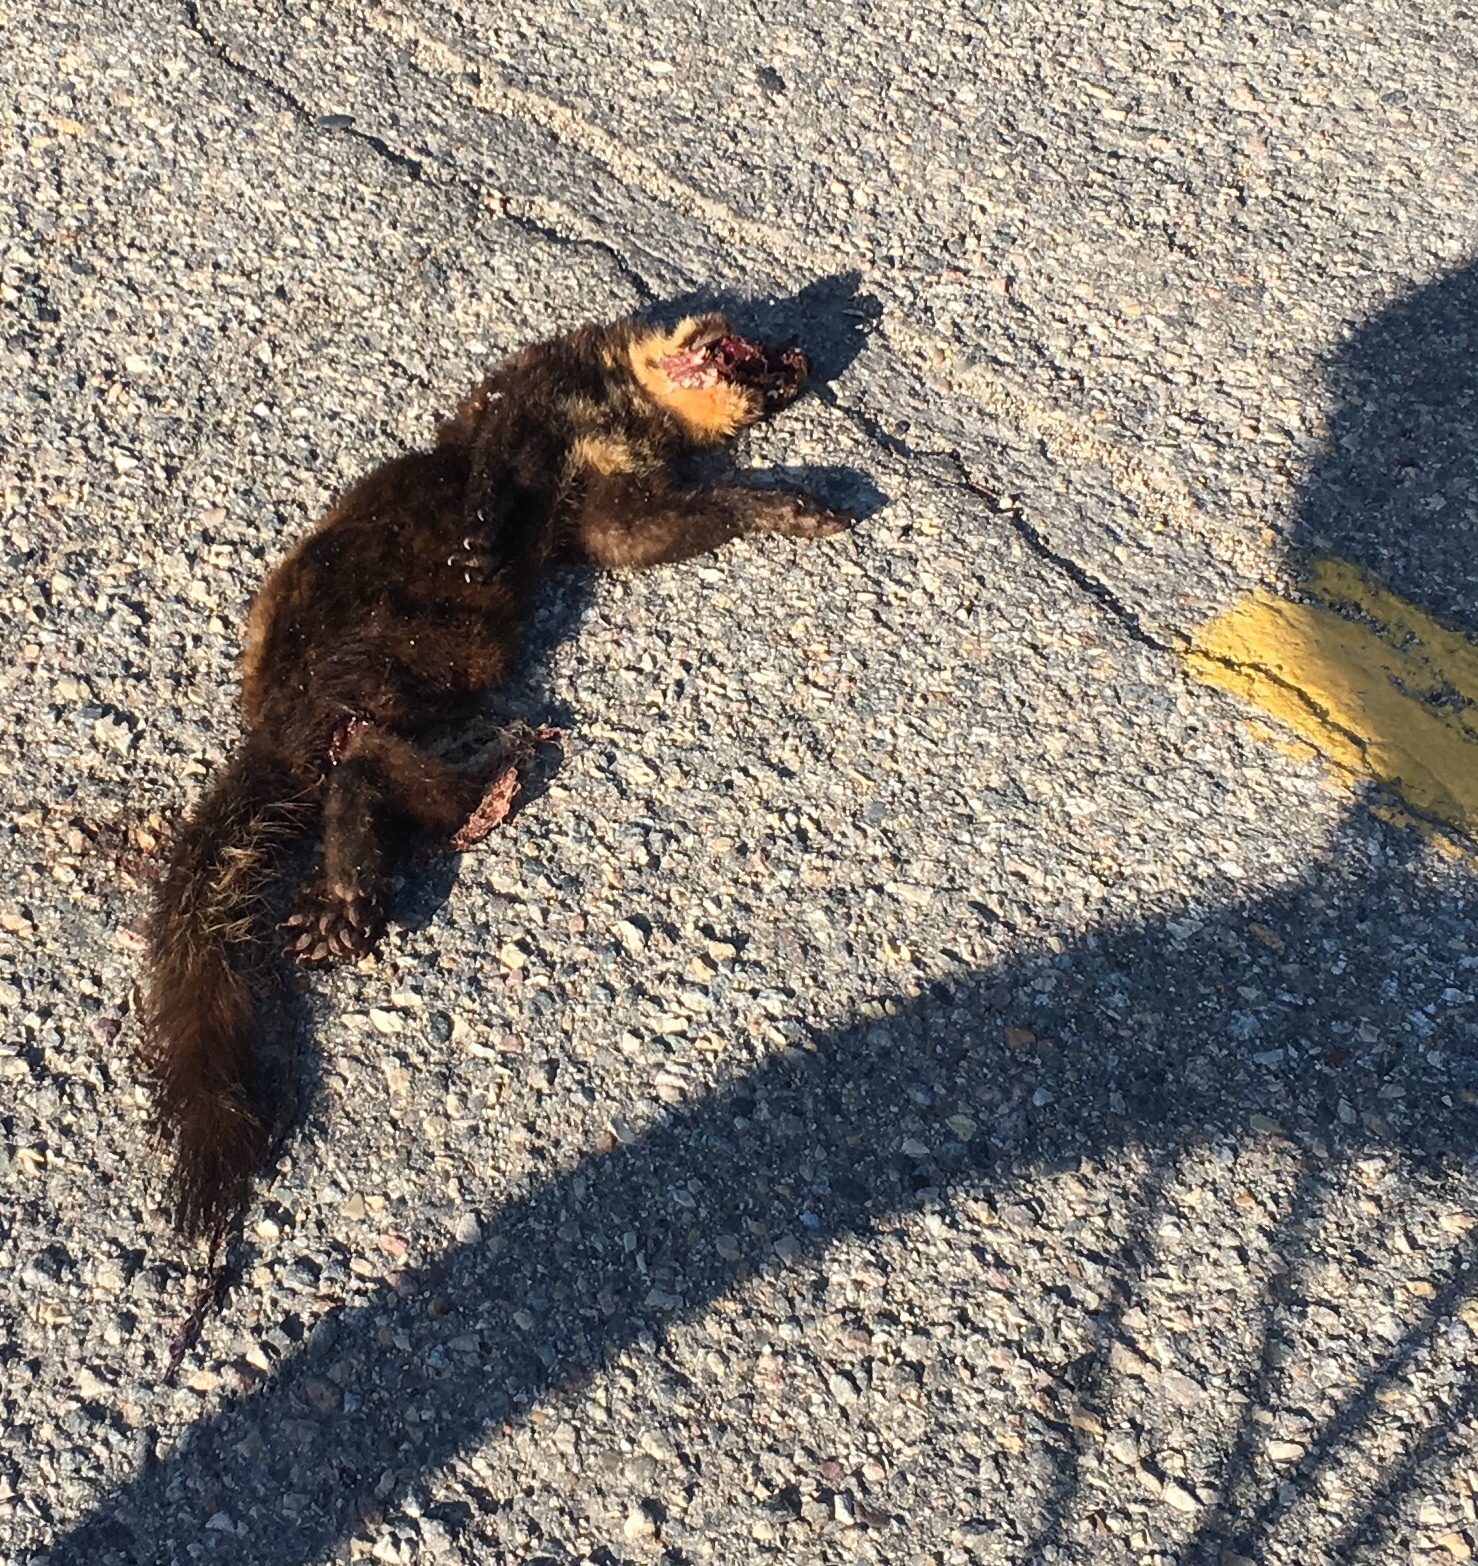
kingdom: Animalia
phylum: Chordata
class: Mammalia
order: Carnivora
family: Mustelidae
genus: Martes
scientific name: Martes americana
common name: American marten
